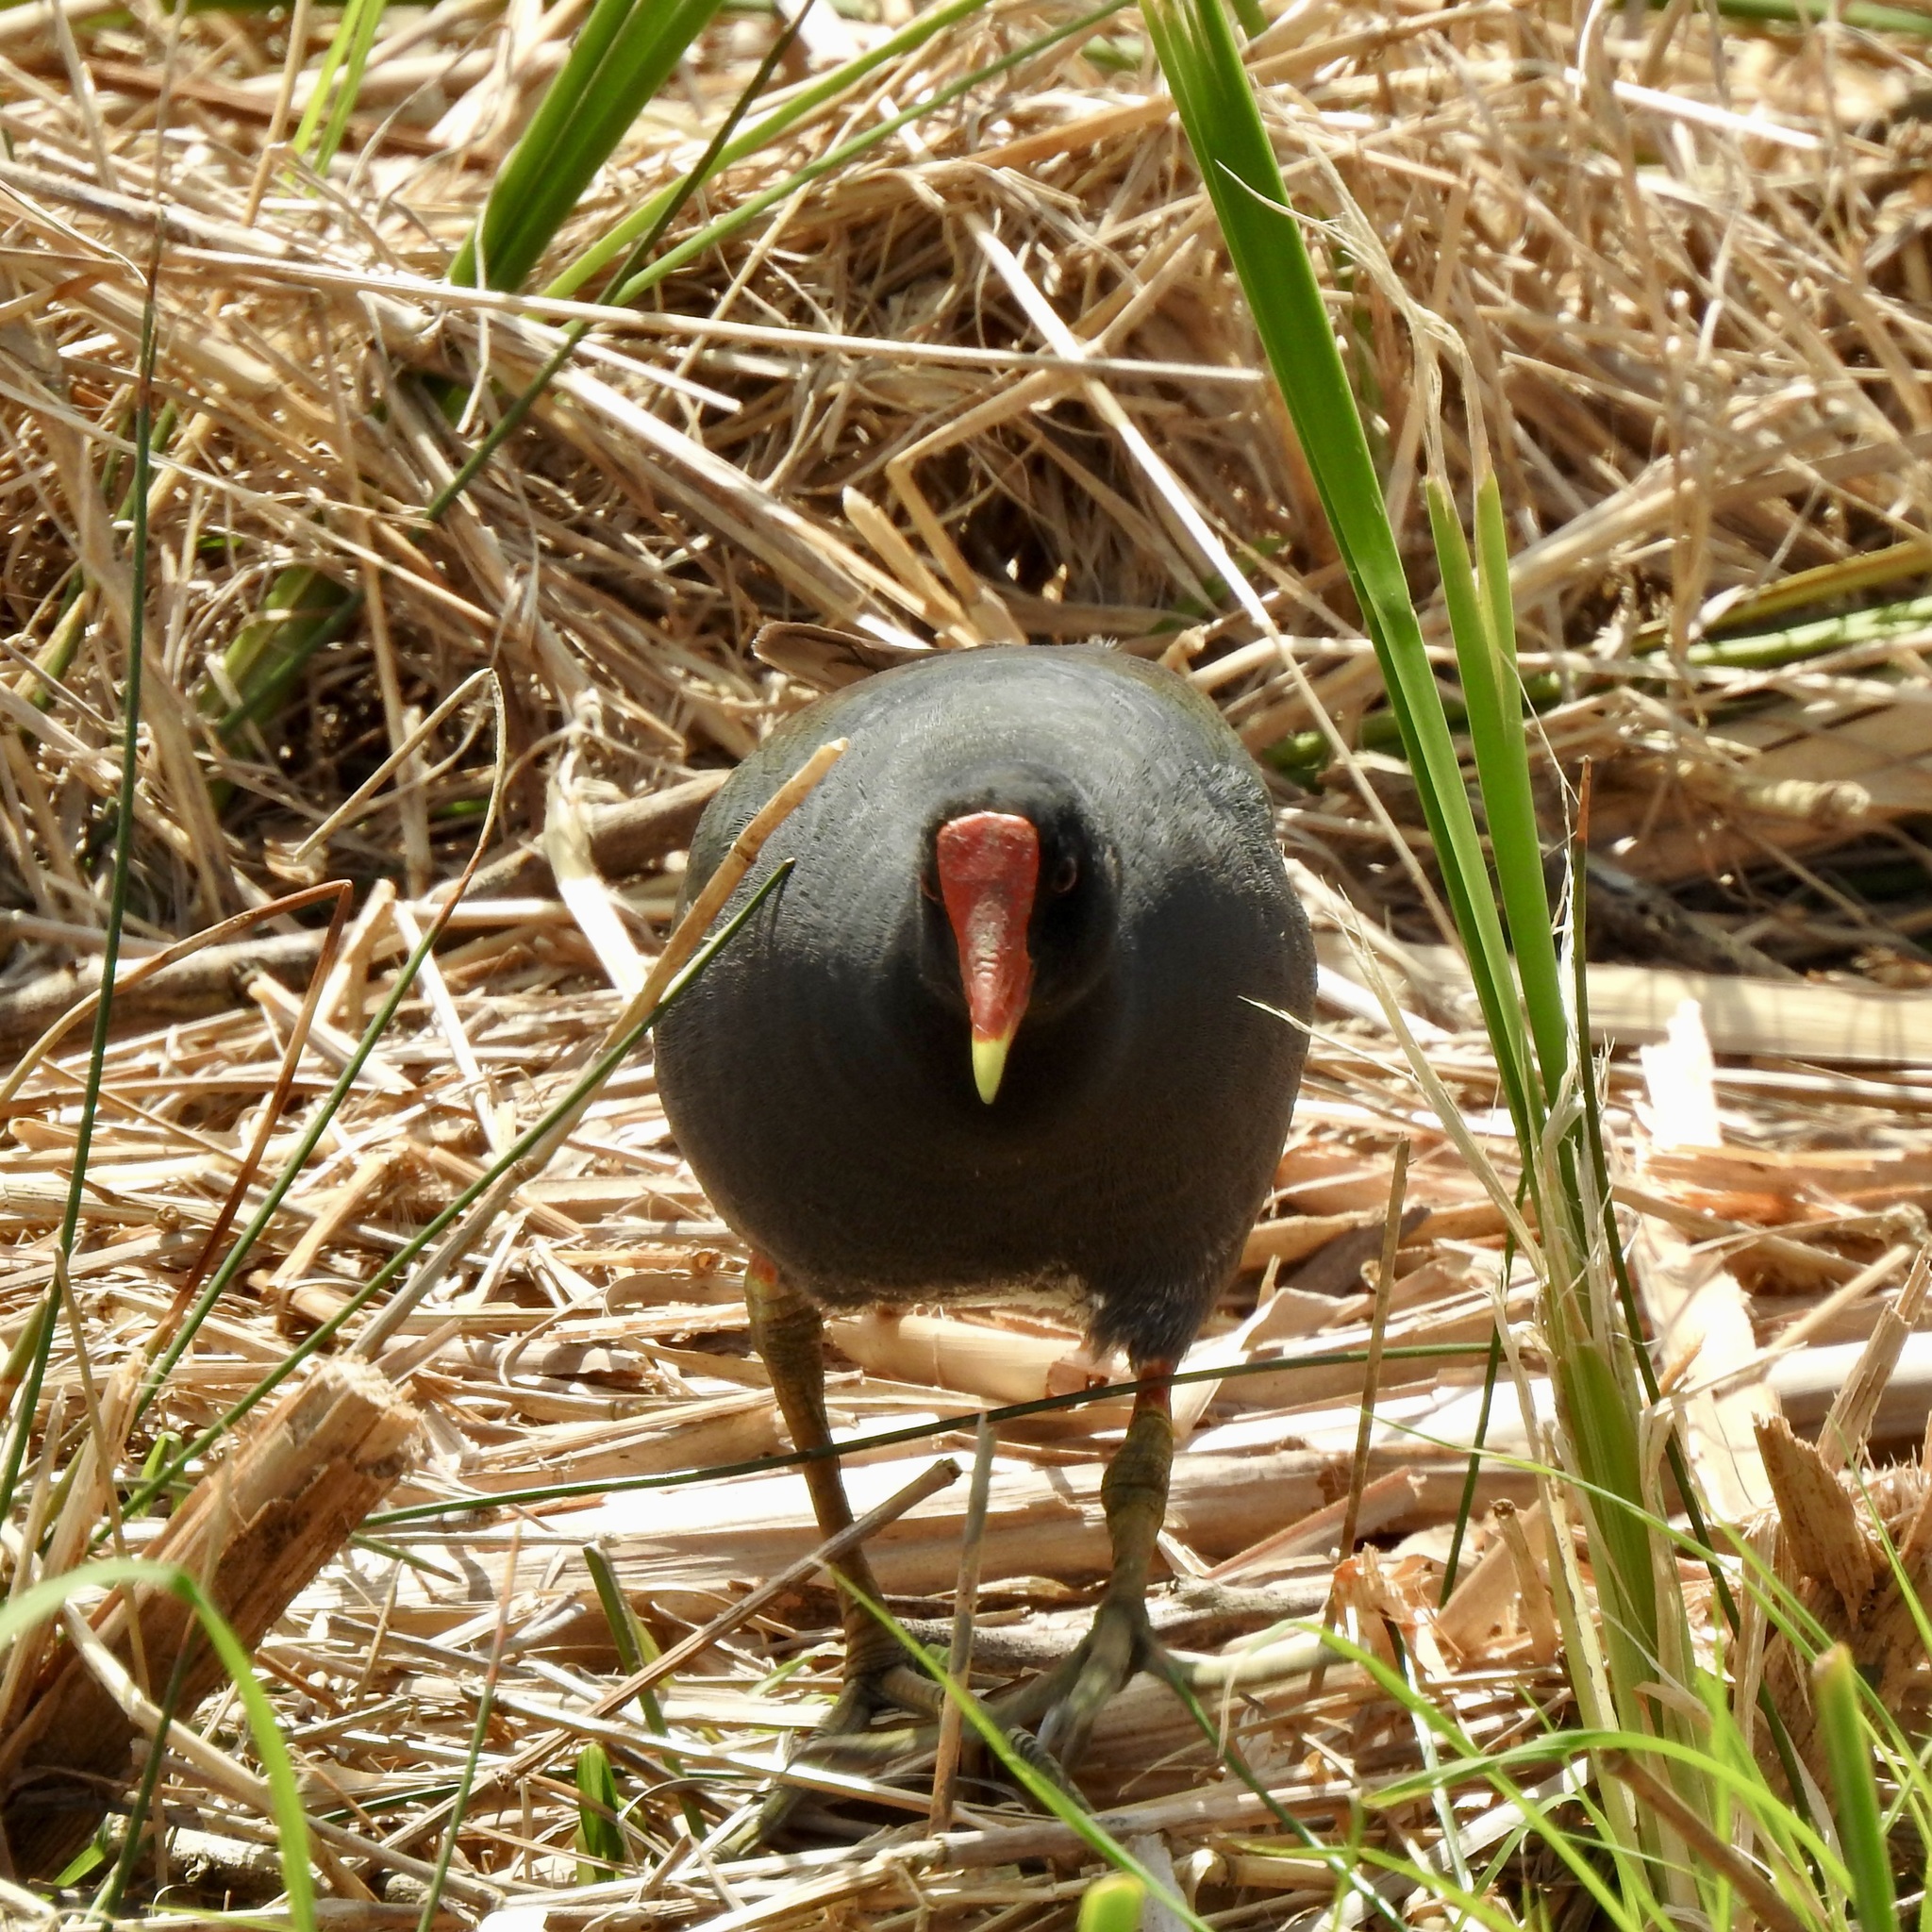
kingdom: Animalia
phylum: Chordata
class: Aves
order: Gruiformes
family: Rallidae
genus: Gallinula
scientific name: Gallinula chloropus
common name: Common moorhen
